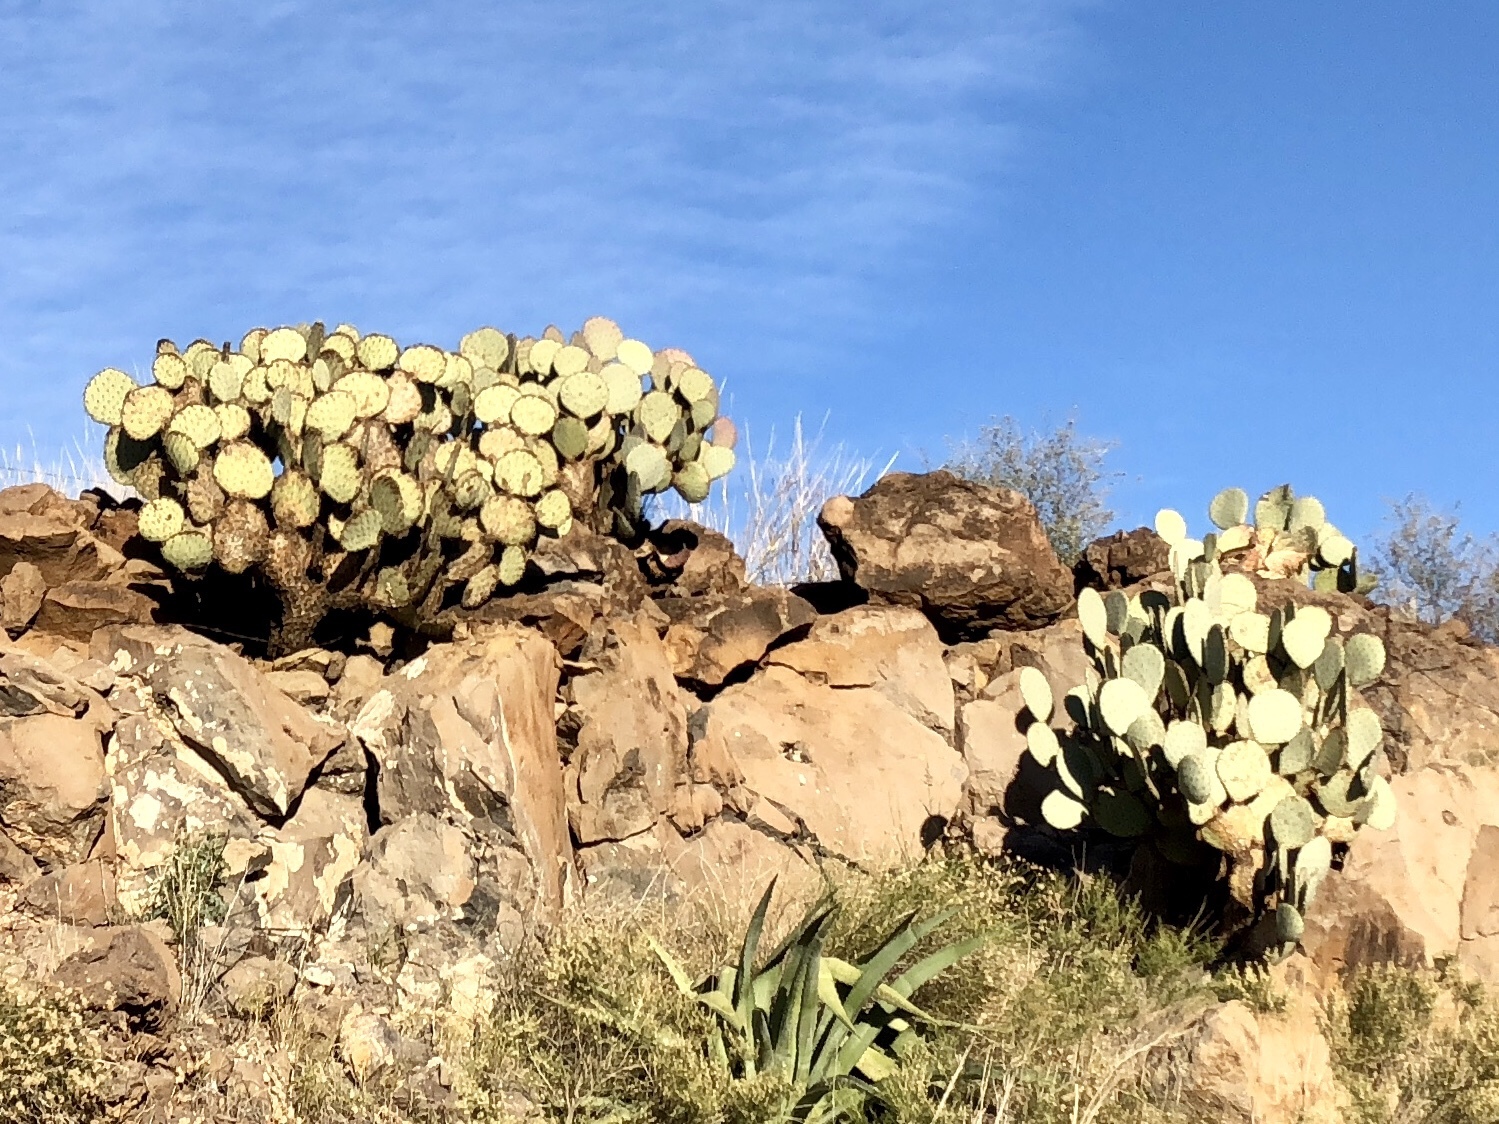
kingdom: Plantae
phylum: Tracheophyta
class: Magnoliopsida
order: Caryophyllales
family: Cactaceae
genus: Opuntia
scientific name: Opuntia chlorotica
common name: Dollar-joint prickly-pear
